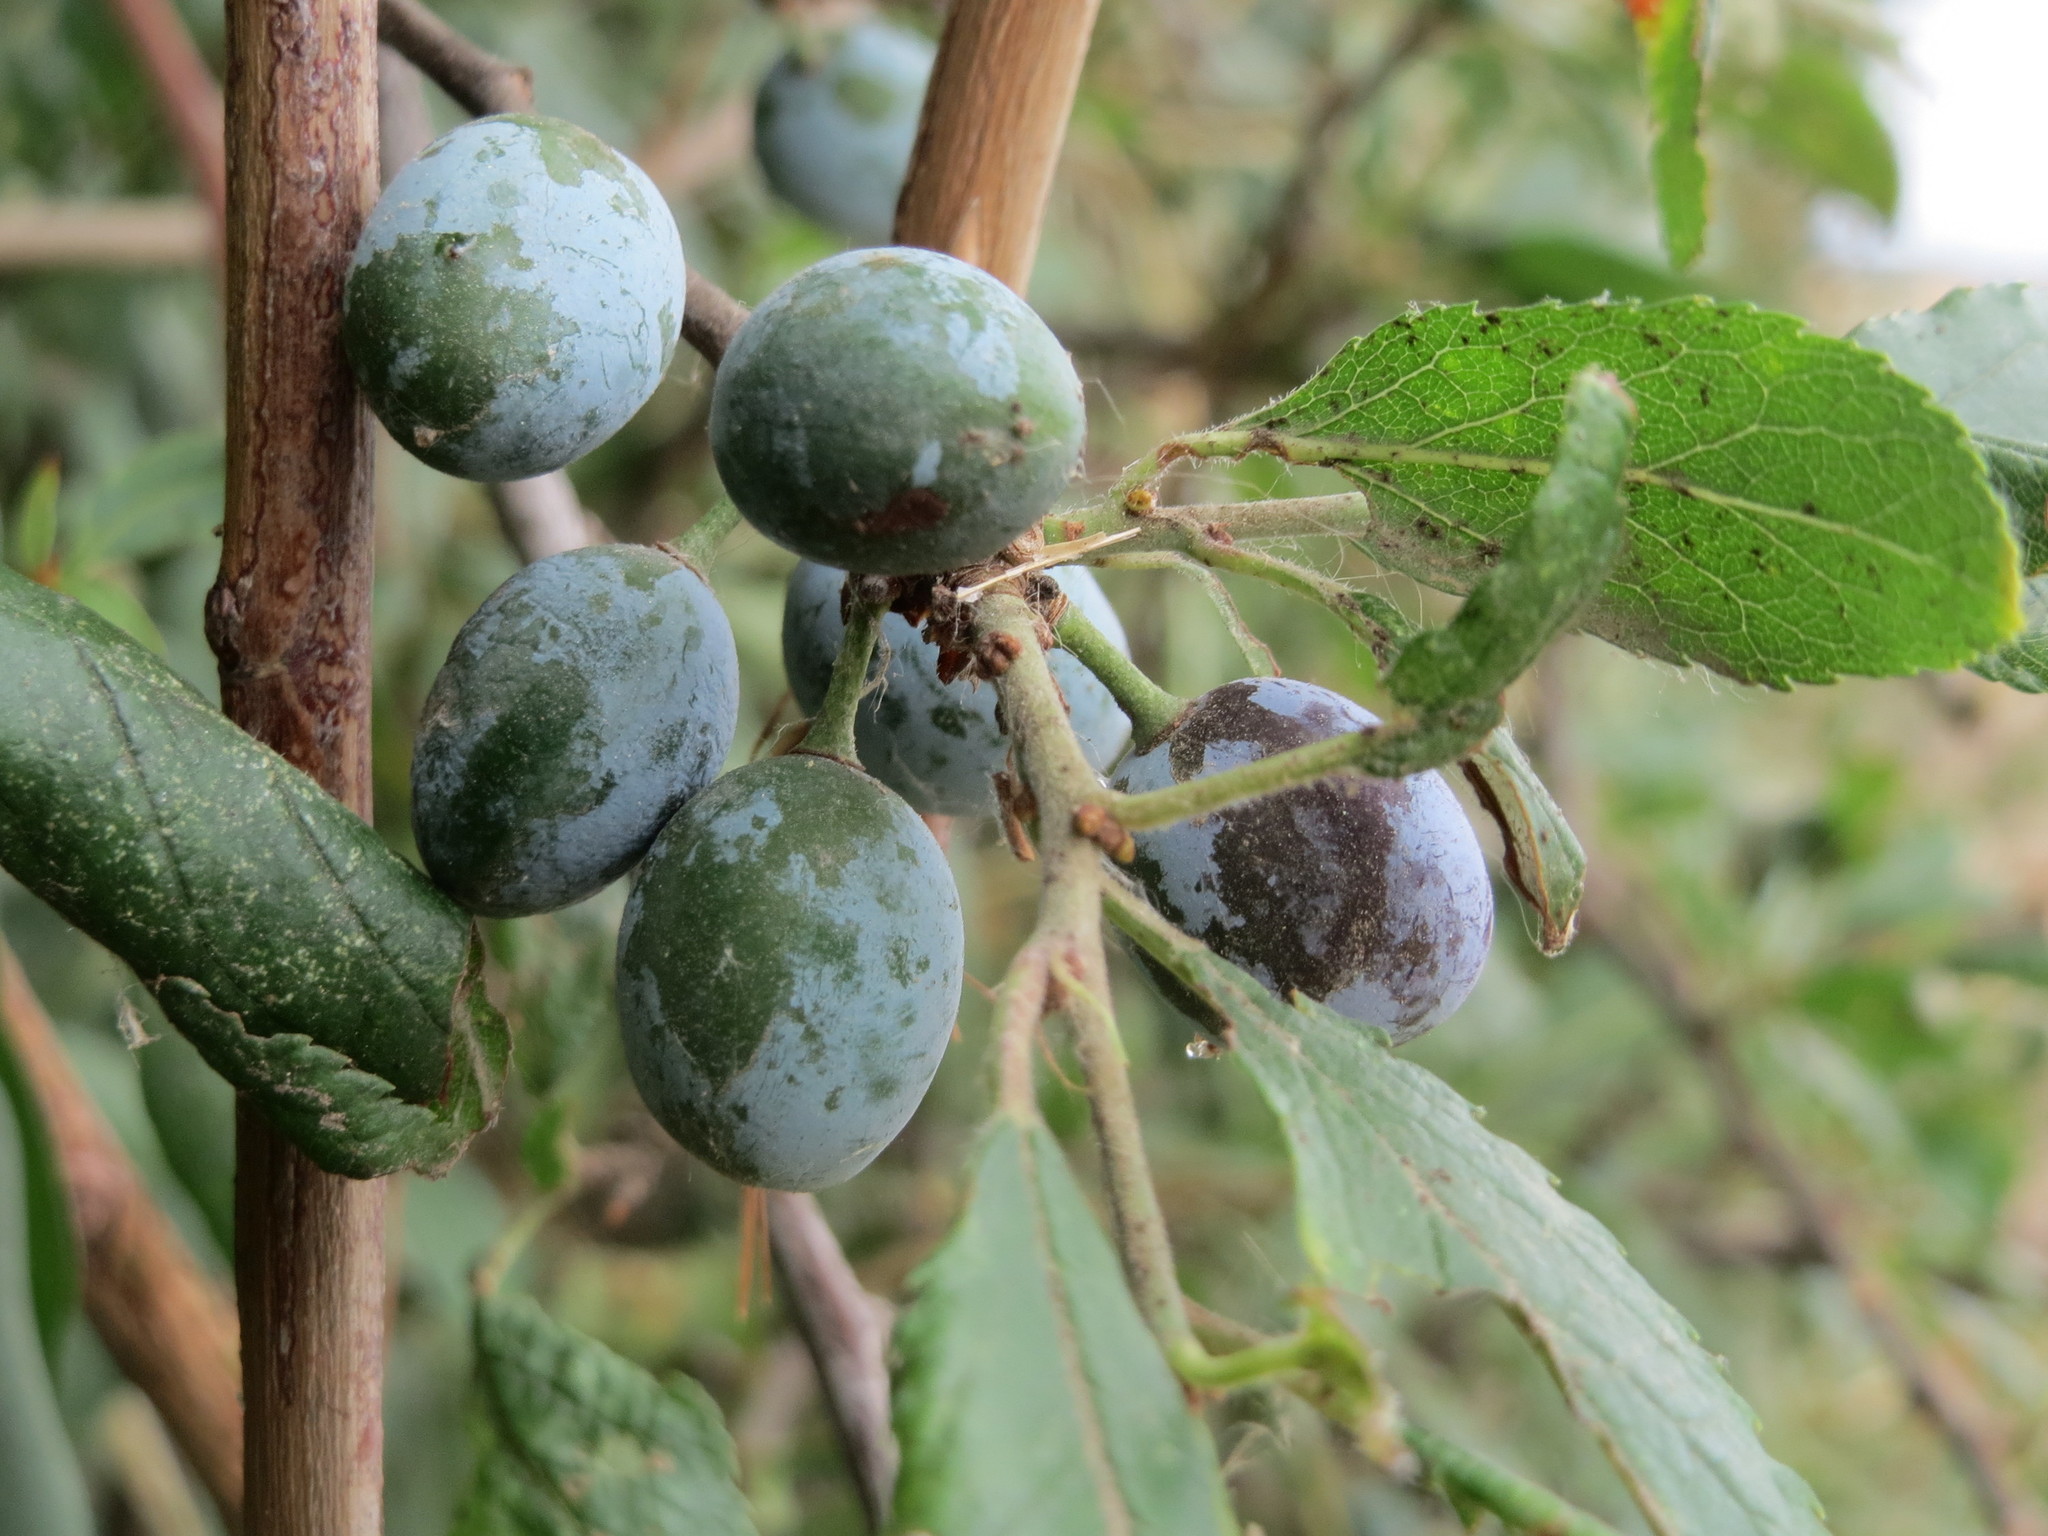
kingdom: Plantae
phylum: Tracheophyta
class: Magnoliopsida
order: Rosales
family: Rosaceae
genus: Prunus
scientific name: Prunus spinosa
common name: Blackthorn
